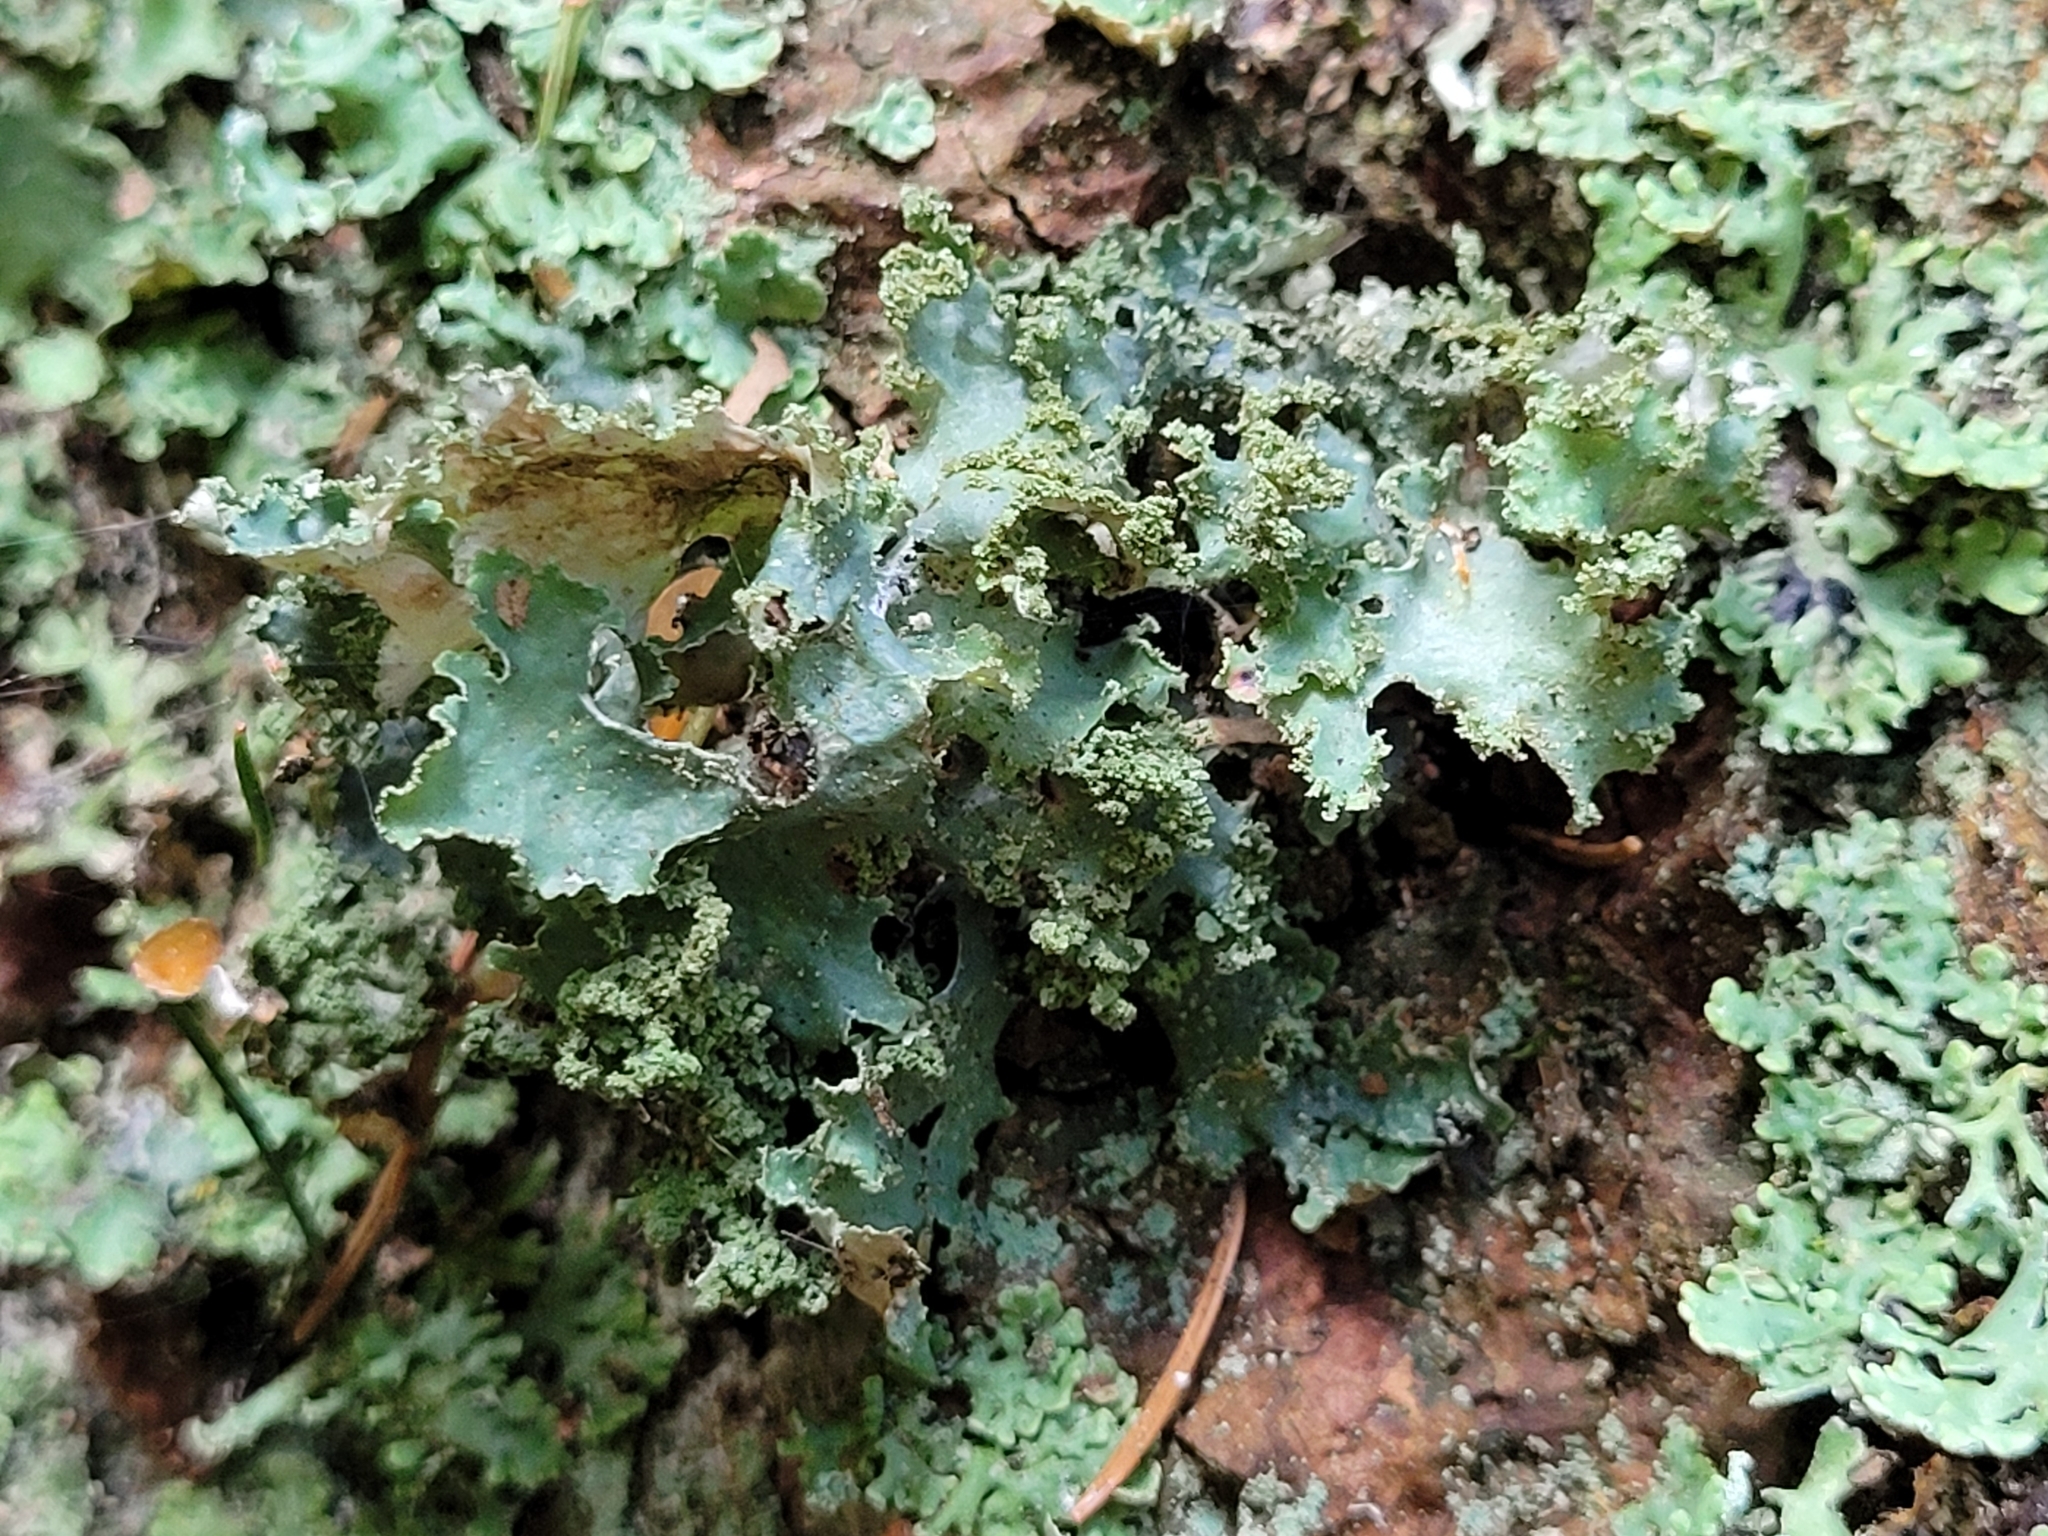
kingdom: Fungi
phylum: Ascomycota
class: Lecanoromycetes
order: Lecanorales
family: Parmeliaceae
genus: Platismatia
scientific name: Platismatia glauca
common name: Varied rag lichen
